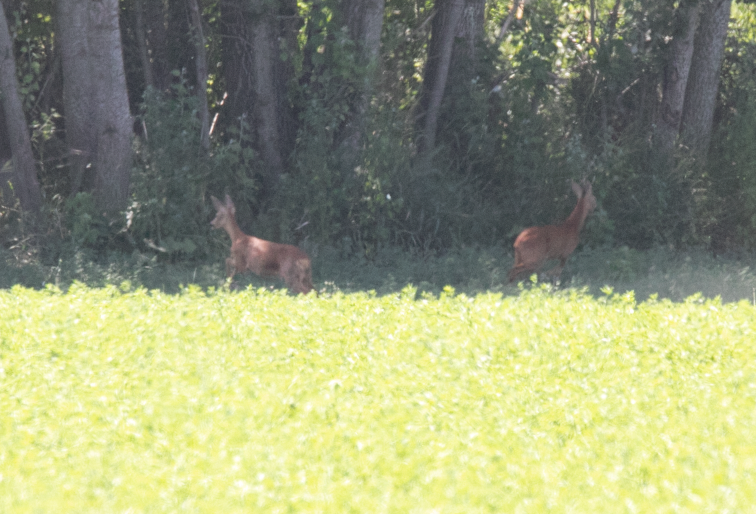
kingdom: Animalia
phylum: Chordata
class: Mammalia
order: Artiodactyla
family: Cervidae
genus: Capreolus
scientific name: Capreolus capreolus
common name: Western roe deer
